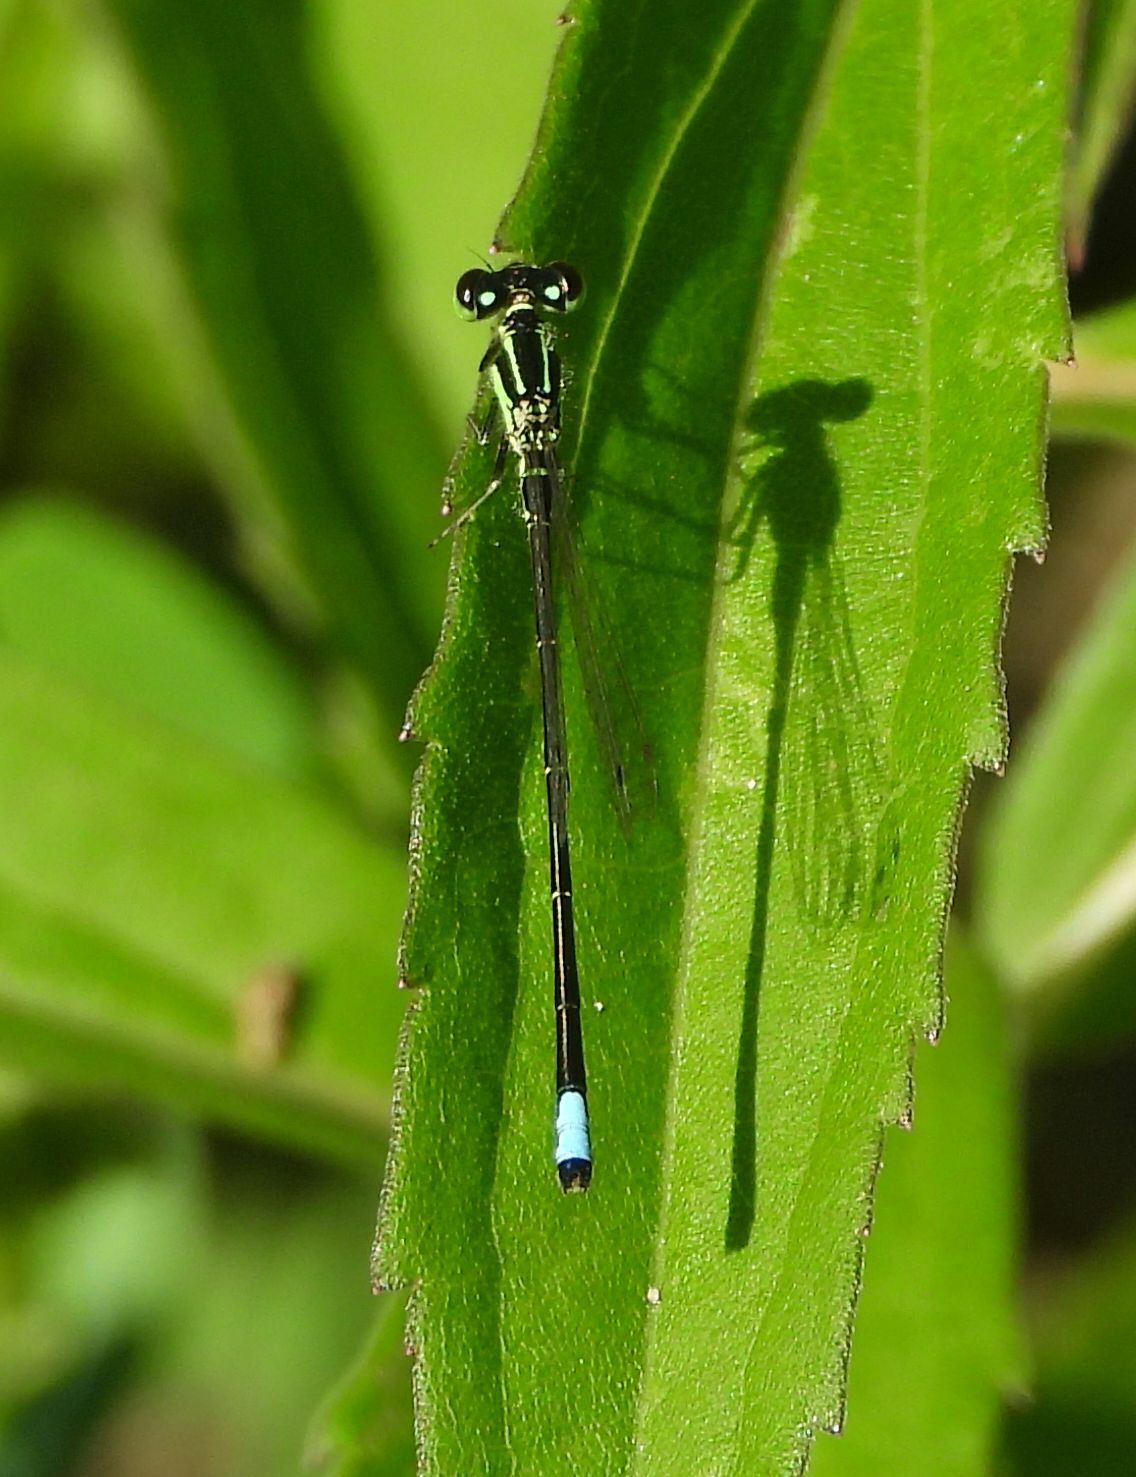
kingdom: Animalia
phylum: Arthropoda
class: Insecta
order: Odonata
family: Coenagrionidae
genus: Ischnura
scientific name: Ischnura verticalis
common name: Eastern forktail
